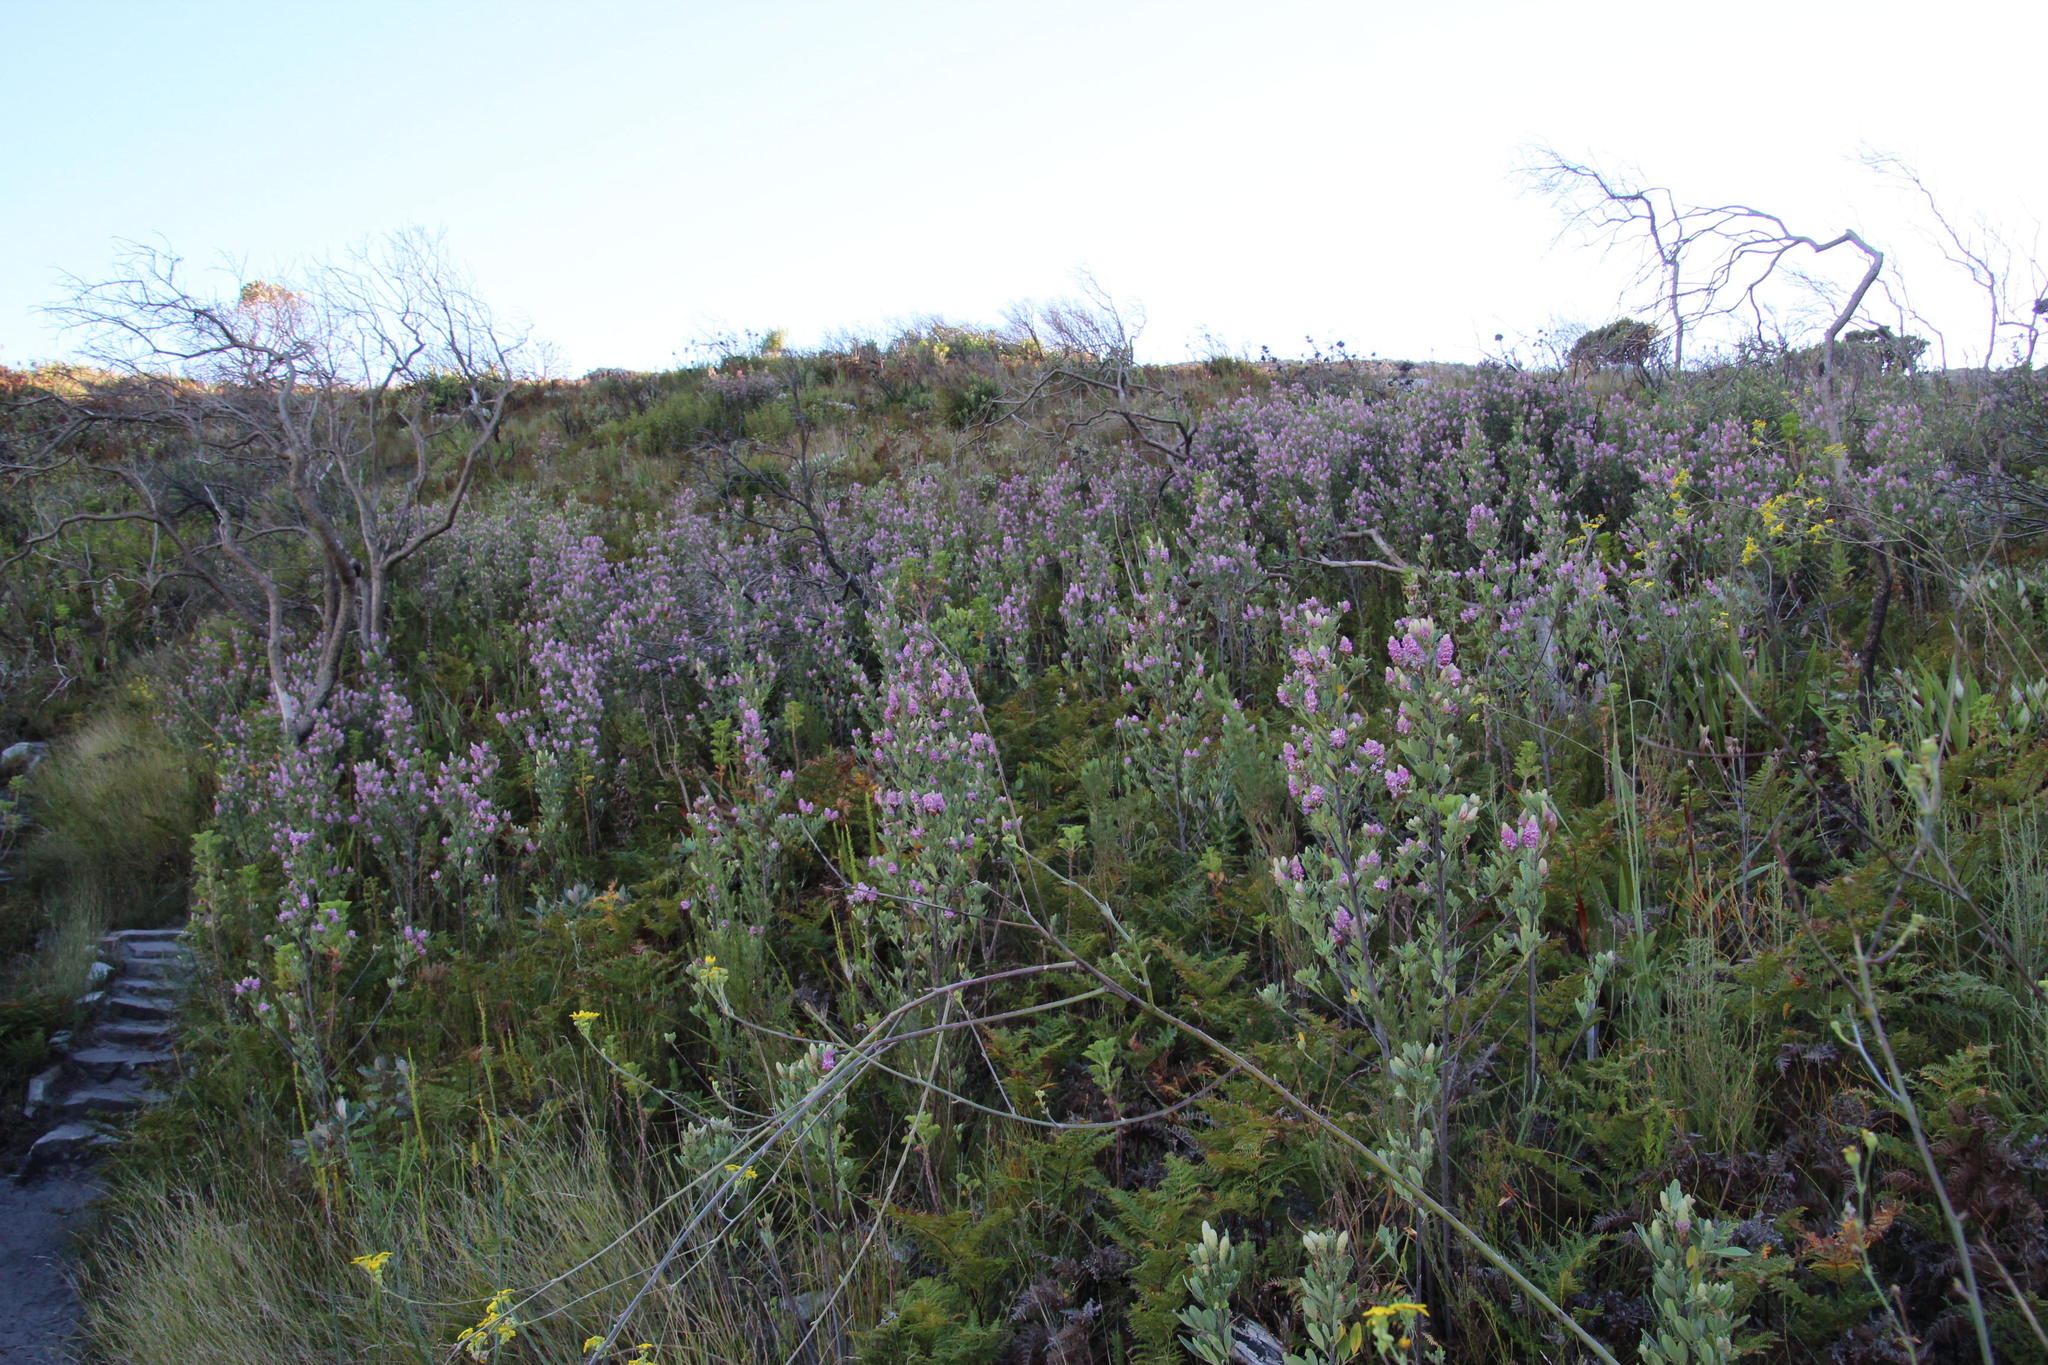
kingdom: Plantae
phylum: Tracheophyta
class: Magnoliopsida
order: Fabales
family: Fabaceae
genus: Indigofera
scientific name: Indigofera cytisoides
